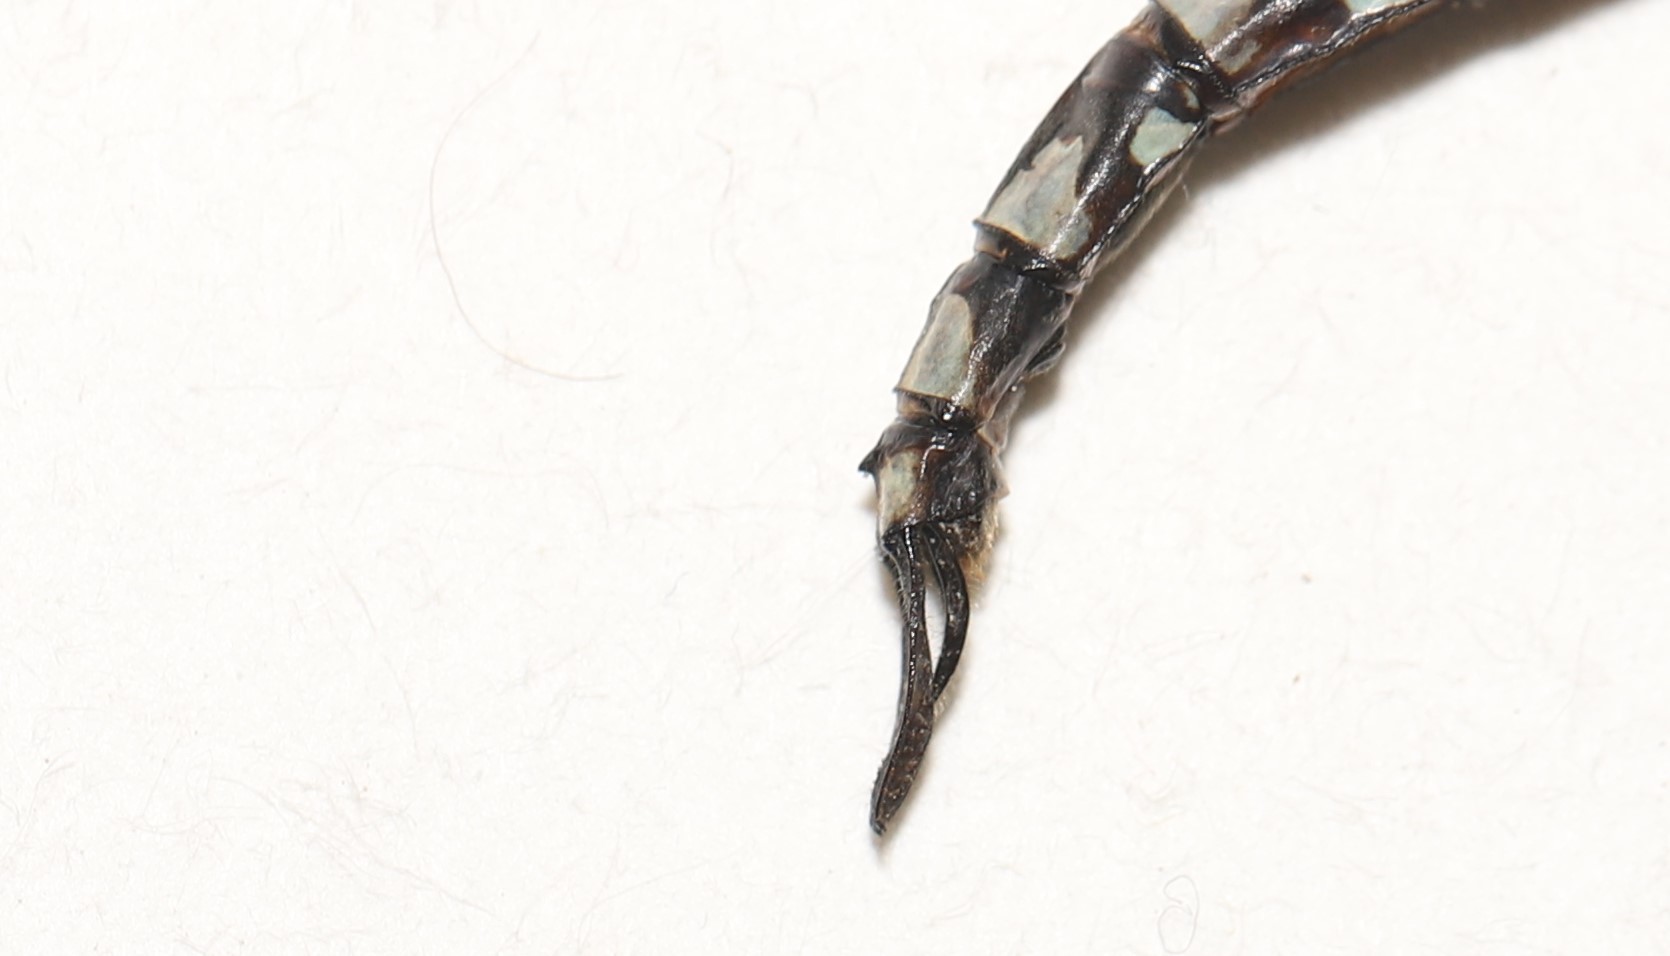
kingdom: Animalia
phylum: Arthropoda
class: Insecta
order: Odonata
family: Aeshnidae
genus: Aeshna
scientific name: Aeshna canadensis
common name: Canada darner
